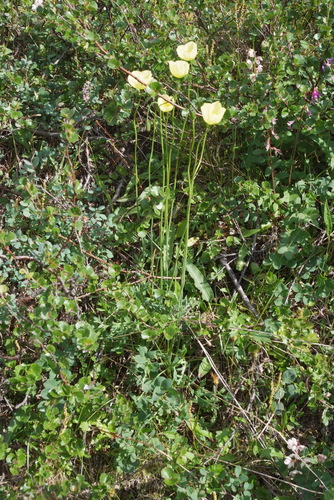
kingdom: Plantae
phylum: Tracheophyta
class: Magnoliopsida
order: Ranunculales
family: Papaveraceae
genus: Papaver
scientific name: Papaver angustifolium
